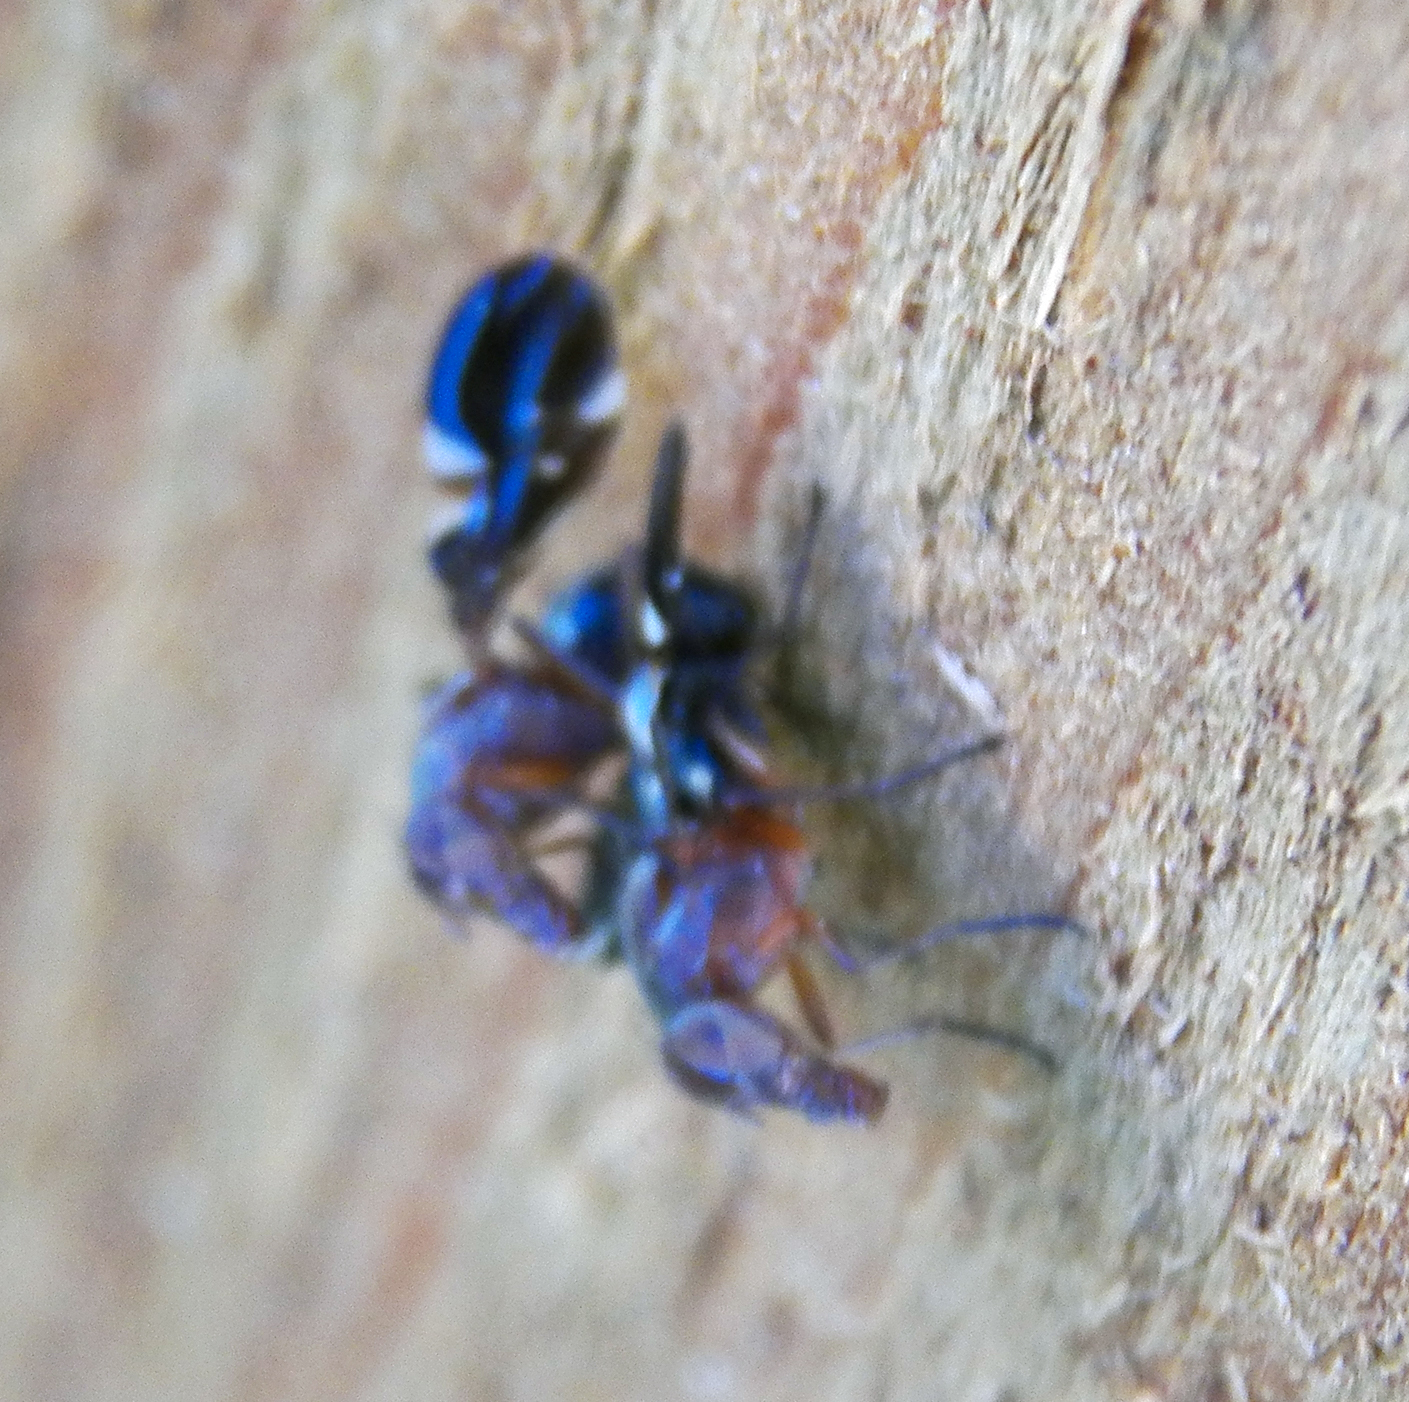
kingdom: Animalia
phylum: Arthropoda
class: Insecta
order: Diptera
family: Ulidiidae
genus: Delphinia
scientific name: Delphinia picta
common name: Common picture-winged fly
